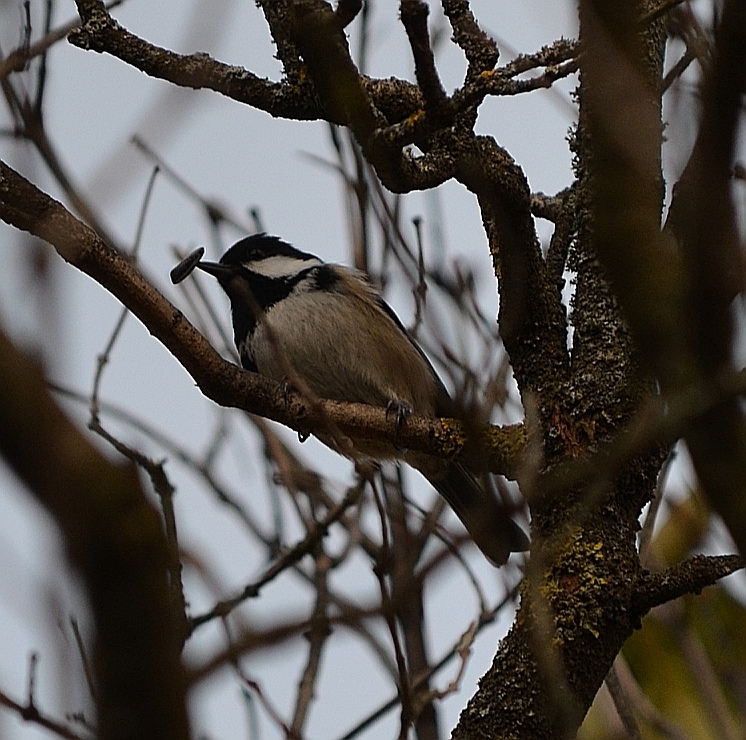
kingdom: Animalia
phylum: Chordata
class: Aves
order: Passeriformes
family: Paridae
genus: Periparus
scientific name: Periparus ater
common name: Coal tit
